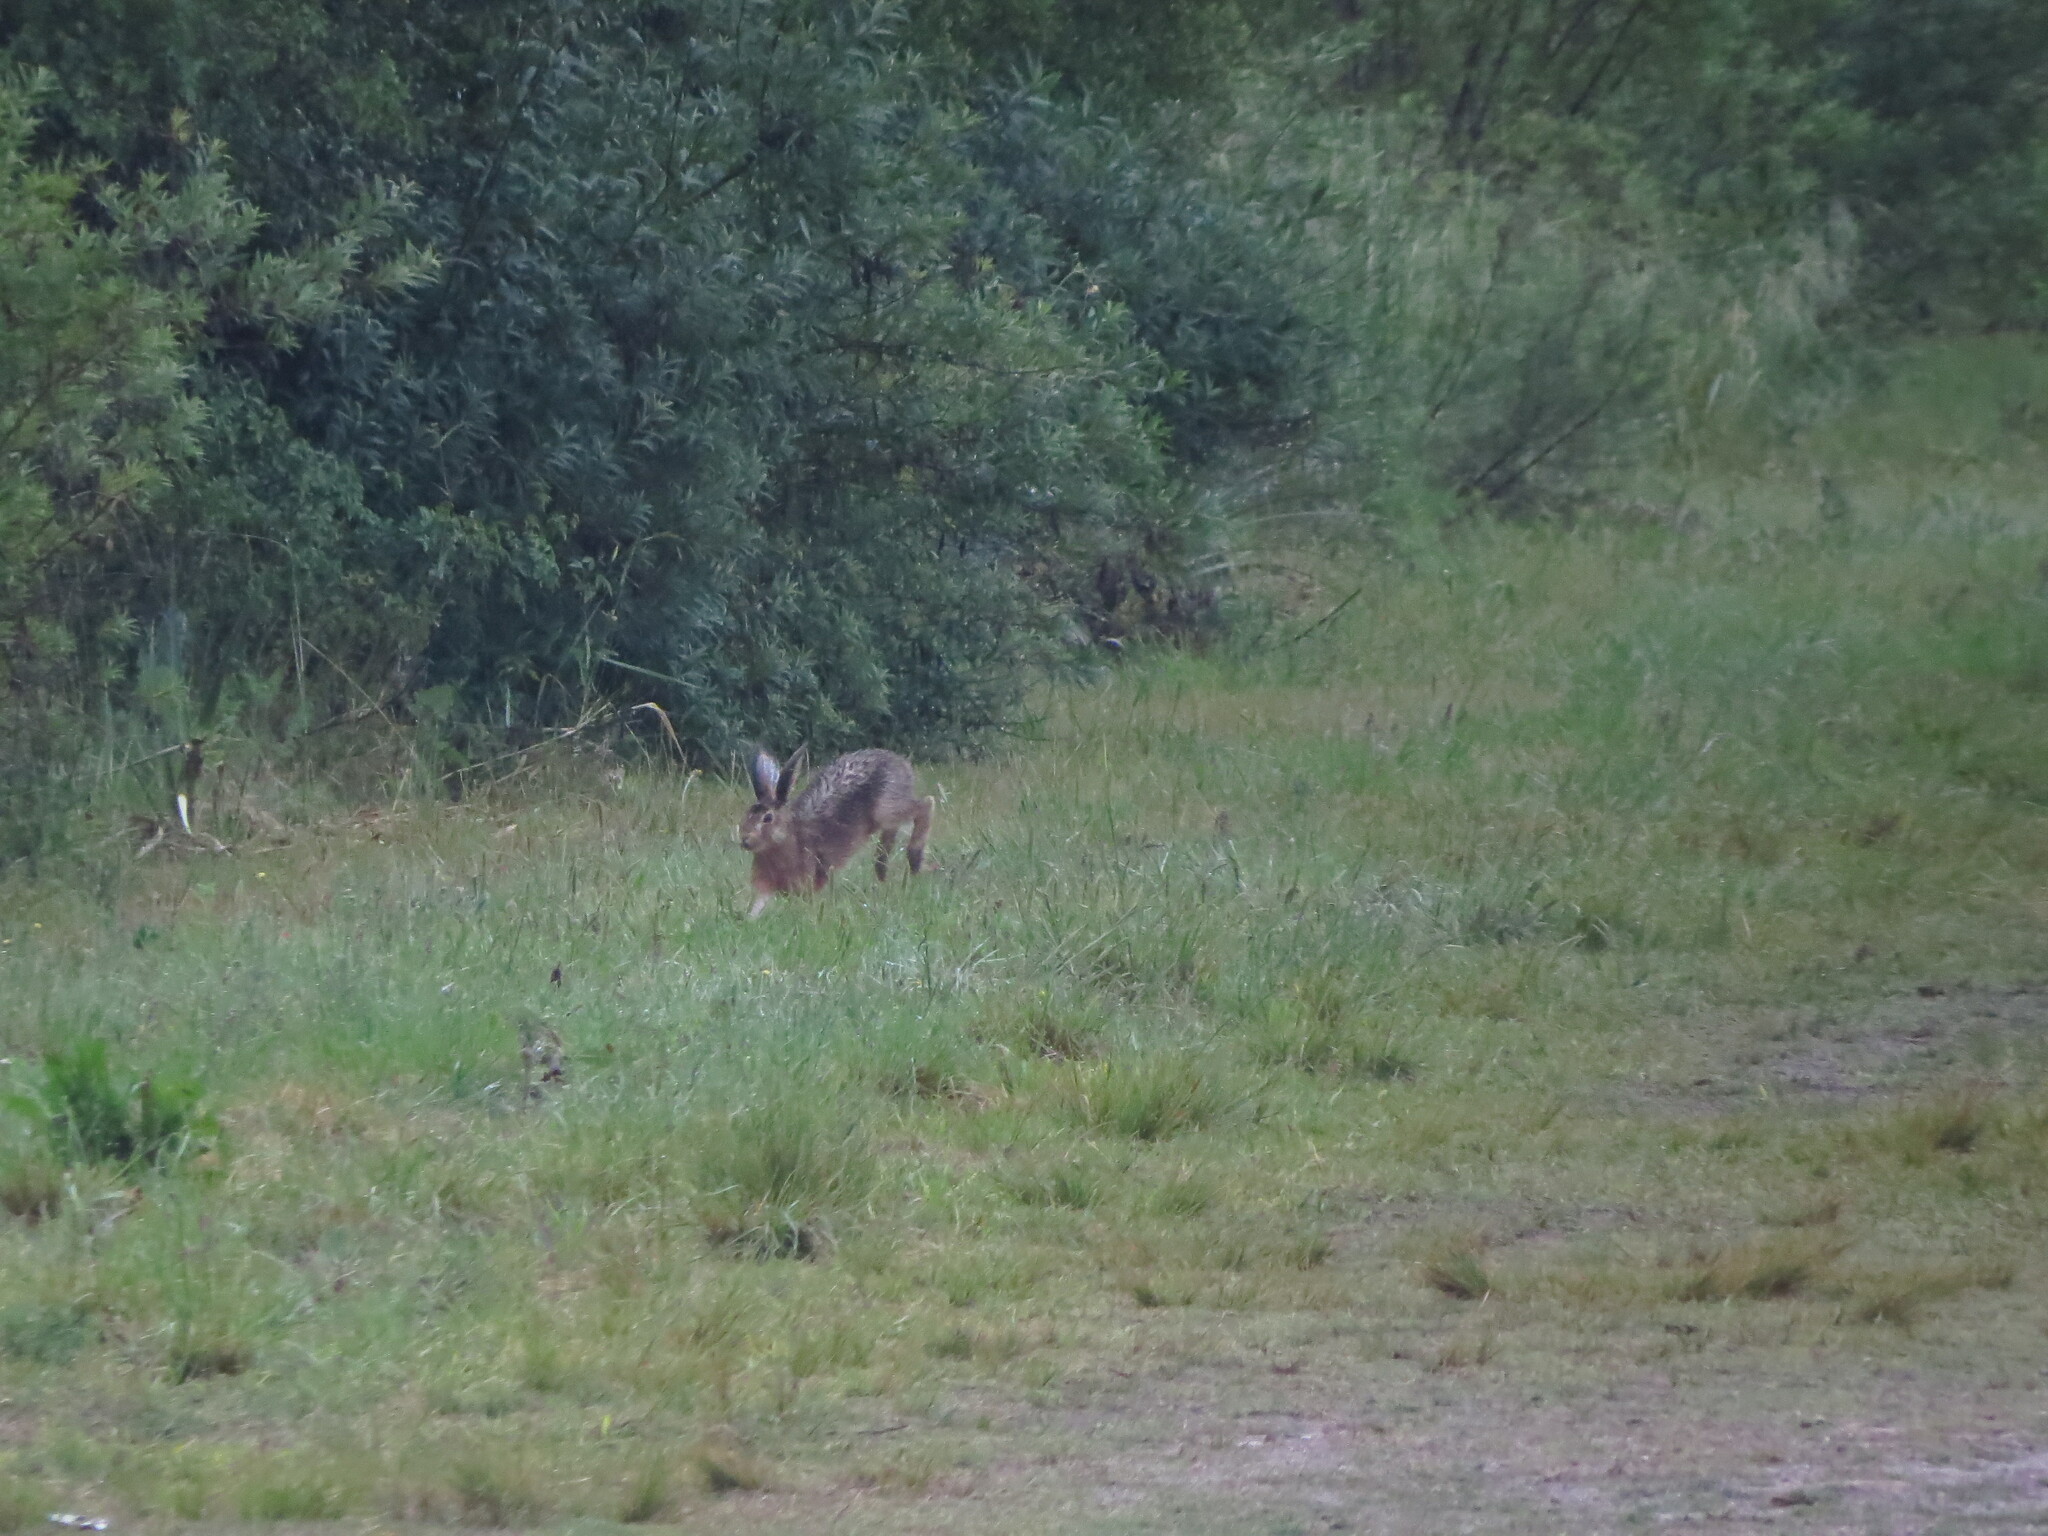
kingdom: Animalia
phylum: Chordata
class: Mammalia
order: Lagomorpha
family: Leporidae
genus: Lepus
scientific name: Lepus europaeus
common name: European hare
